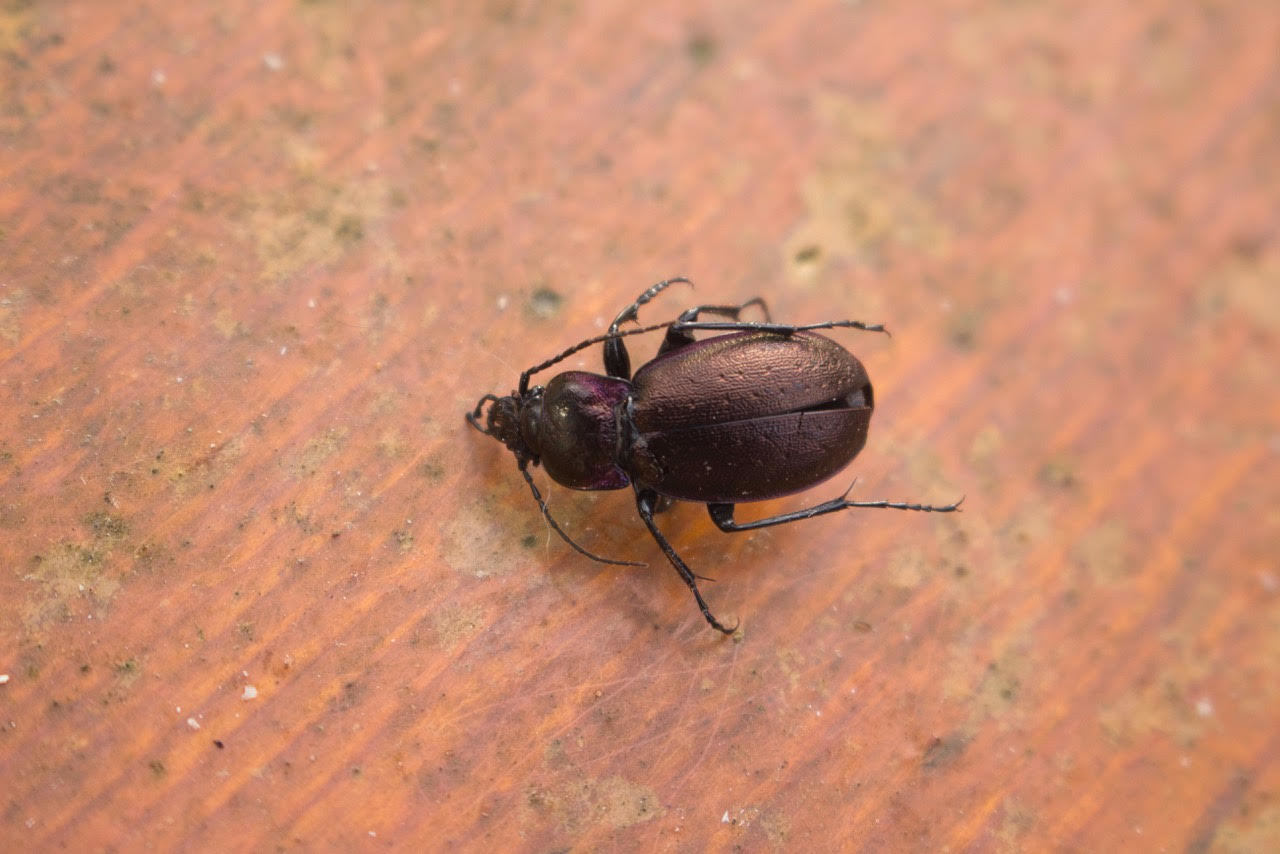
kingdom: Animalia
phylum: Arthropoda
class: Insecta
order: Coleoptera
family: Carabidae
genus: Carabus
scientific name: Carabus nemoralis
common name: European ground beetle
